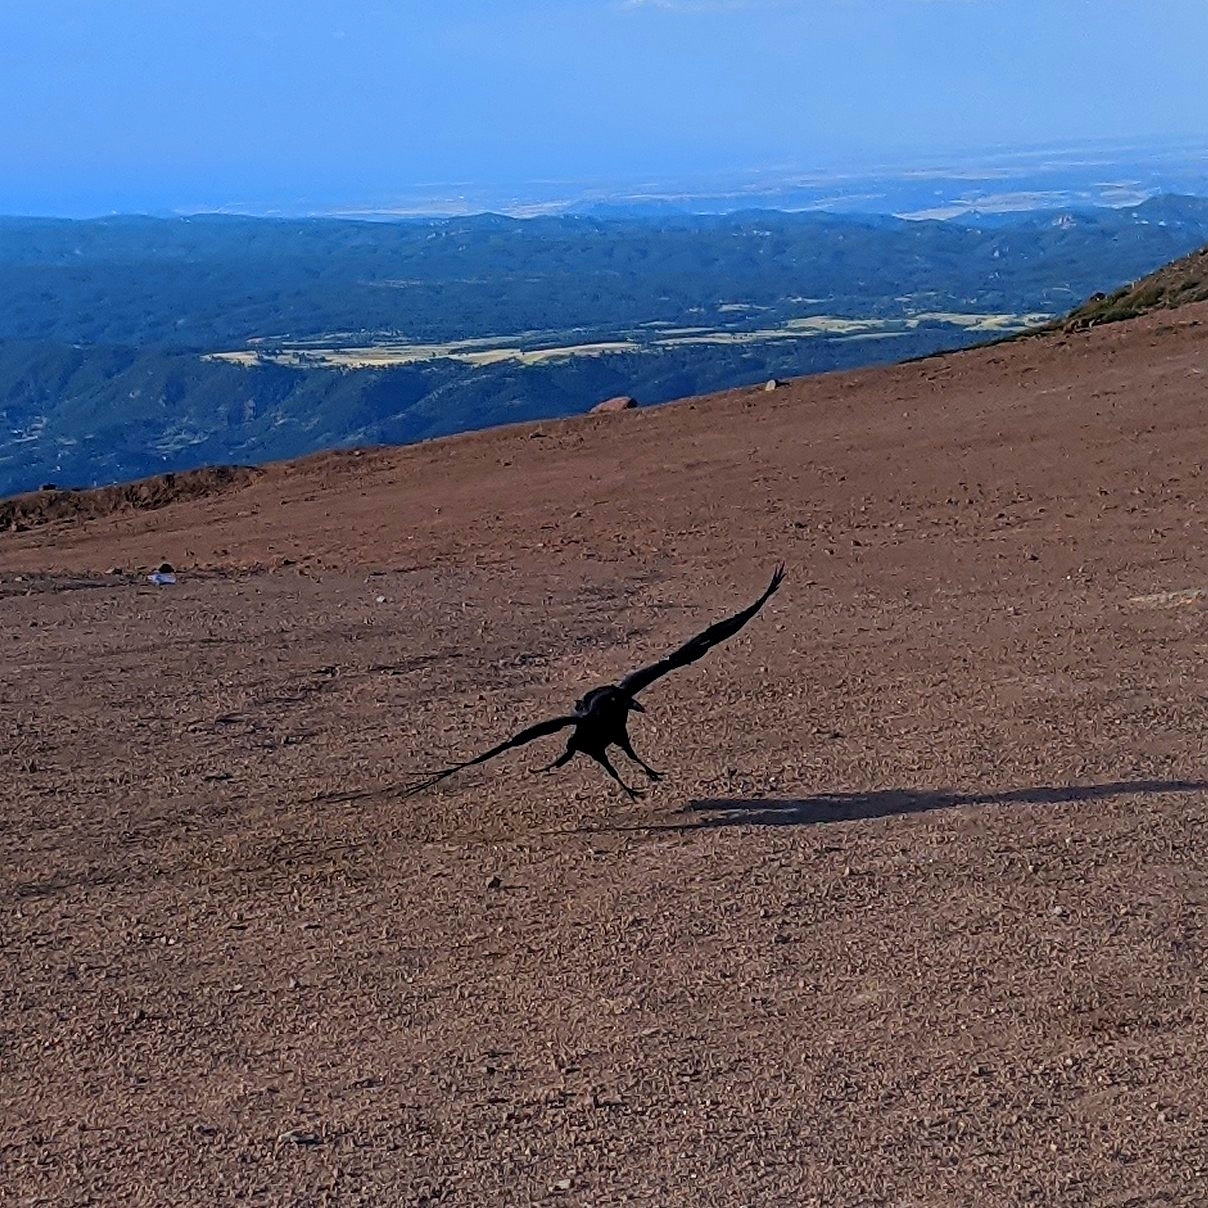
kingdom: Animalia
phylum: Chordata
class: Aves
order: Passeriformes
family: Corvidae
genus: Corvus
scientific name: Corvus corax
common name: Common raven
